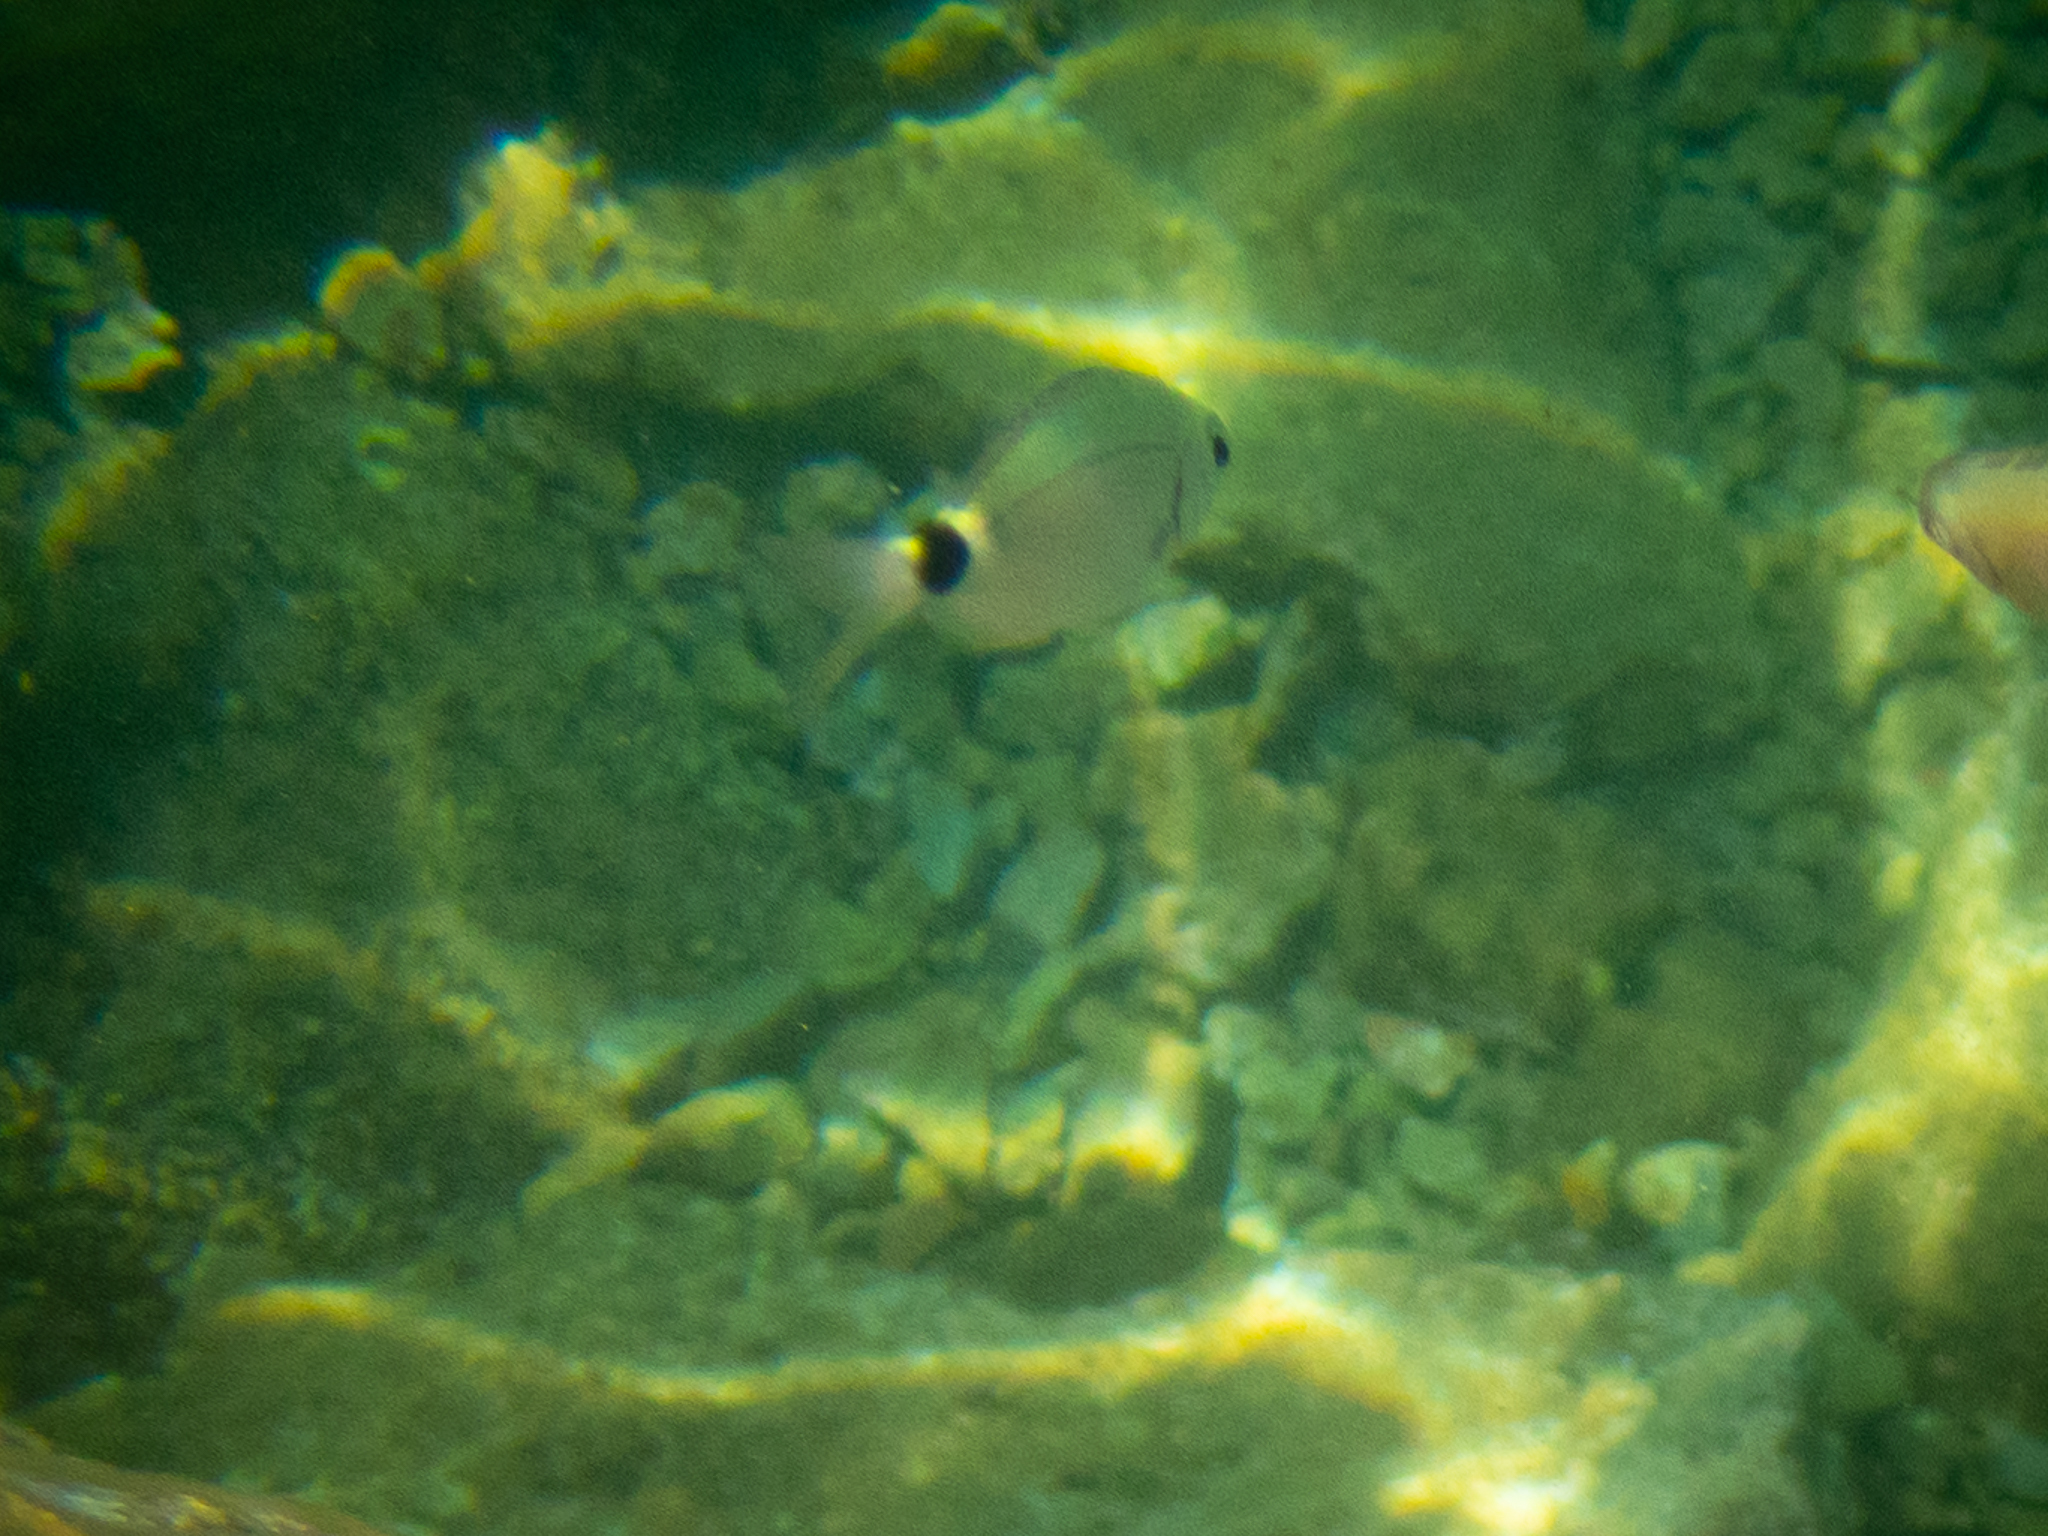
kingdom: Animalia
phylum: Chordata
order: Perciformes
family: Sparidae
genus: Oblada
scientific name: Oblada melanura
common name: Saddled seabream
